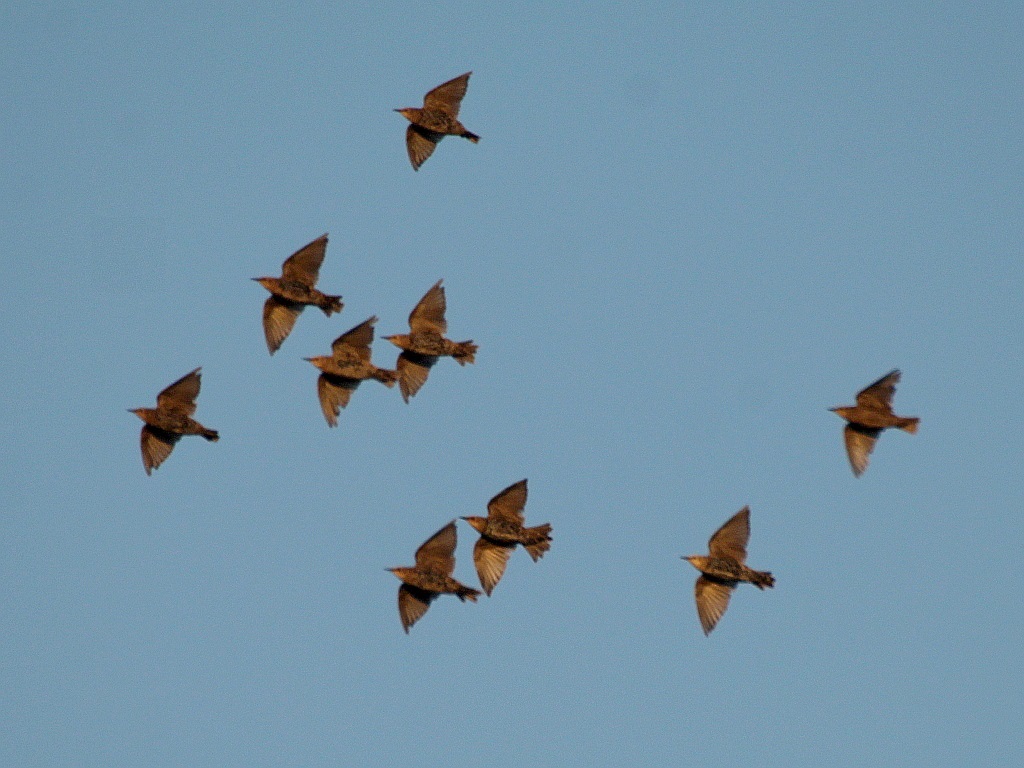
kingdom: Animalia
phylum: Chordata
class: Aves
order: Passeriformes
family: Sturnidae
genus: Sturnus
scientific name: Sturnus vulgaris
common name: Common starling
